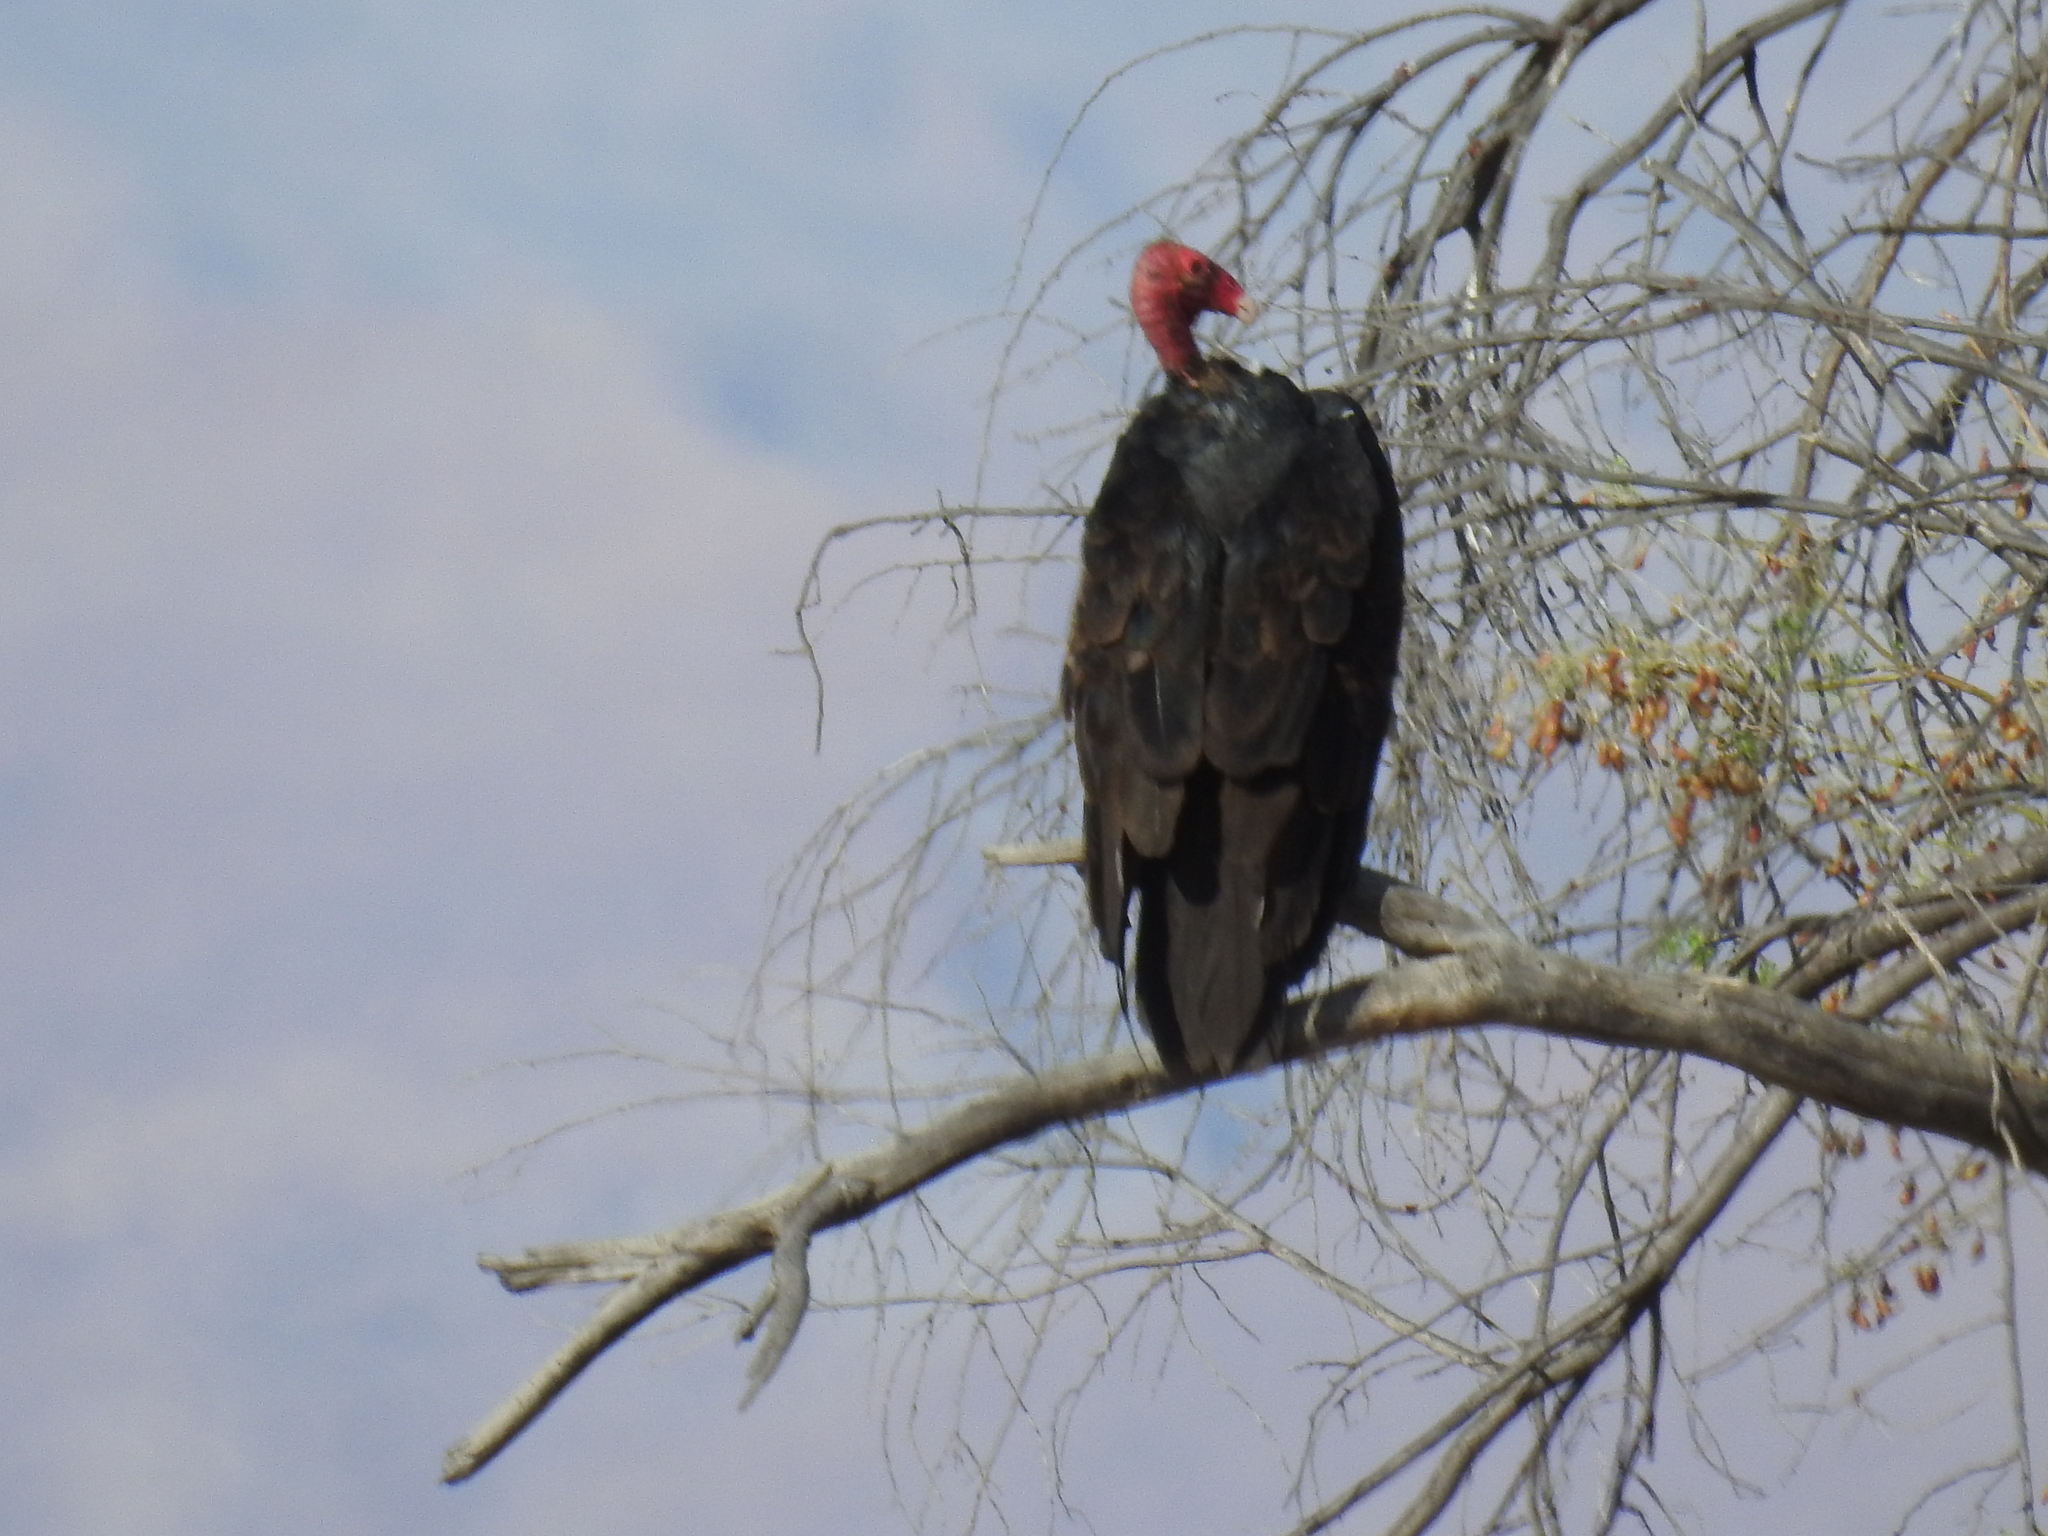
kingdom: Animalia
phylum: Chordata
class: Aves
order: Accipitriformes
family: Cathartidae
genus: Cathartes
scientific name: Cathartes aura
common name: Turkey vulture
